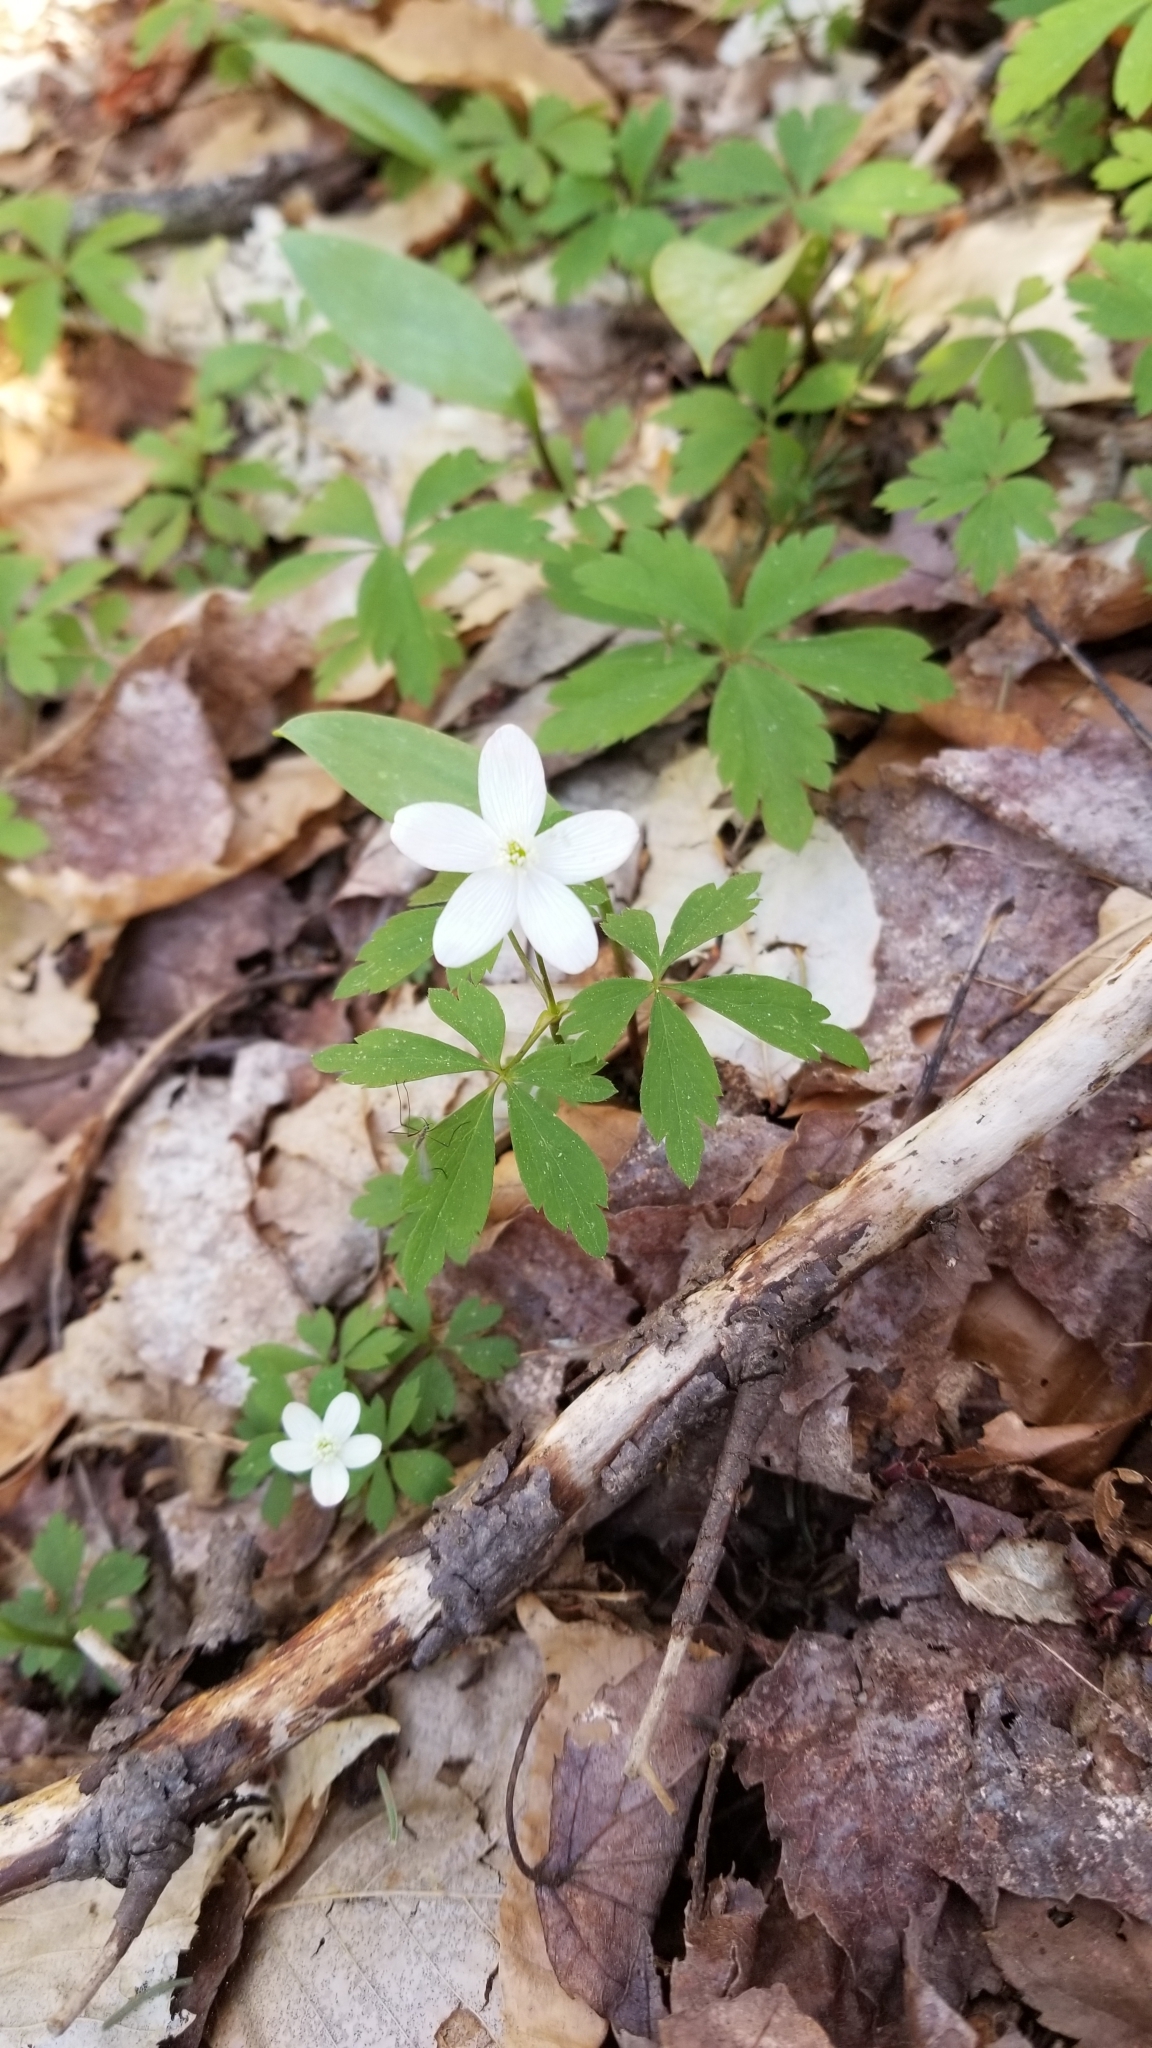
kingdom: Plantae
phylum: Tracheophyta
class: Magnoliopsida
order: Ranunculales
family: Ranunculaceae
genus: Anemone
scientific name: Anemone quinquefolia
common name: Wood anemone
